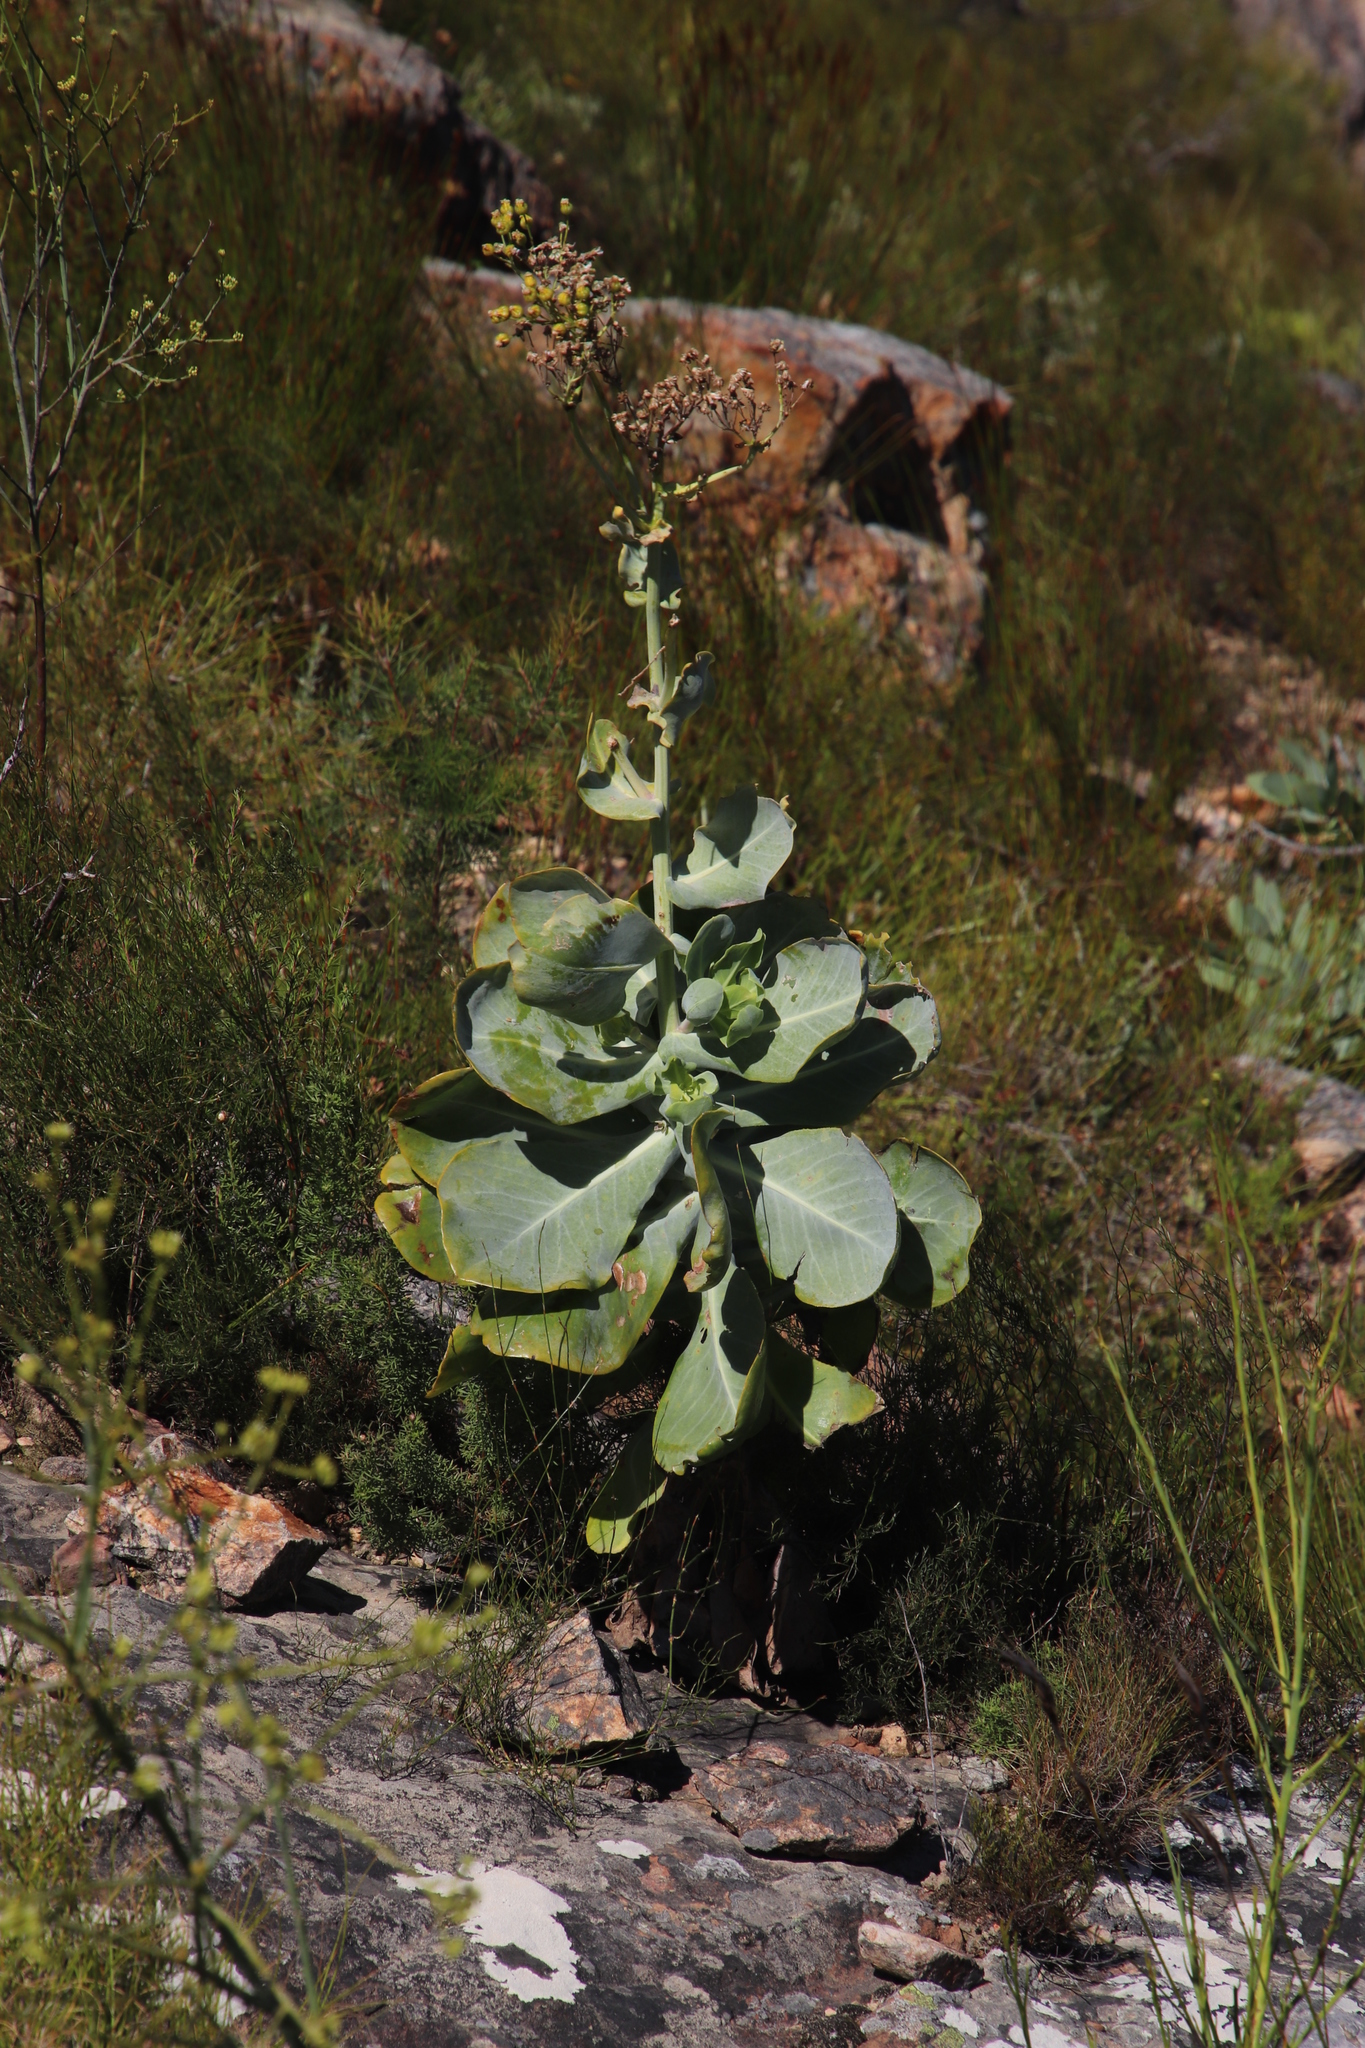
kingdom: Plantae
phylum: Tracheophyta
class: Magnoliopsida
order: Asterales
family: Asteraceae
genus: Othonna
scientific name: Othonna parviflora
